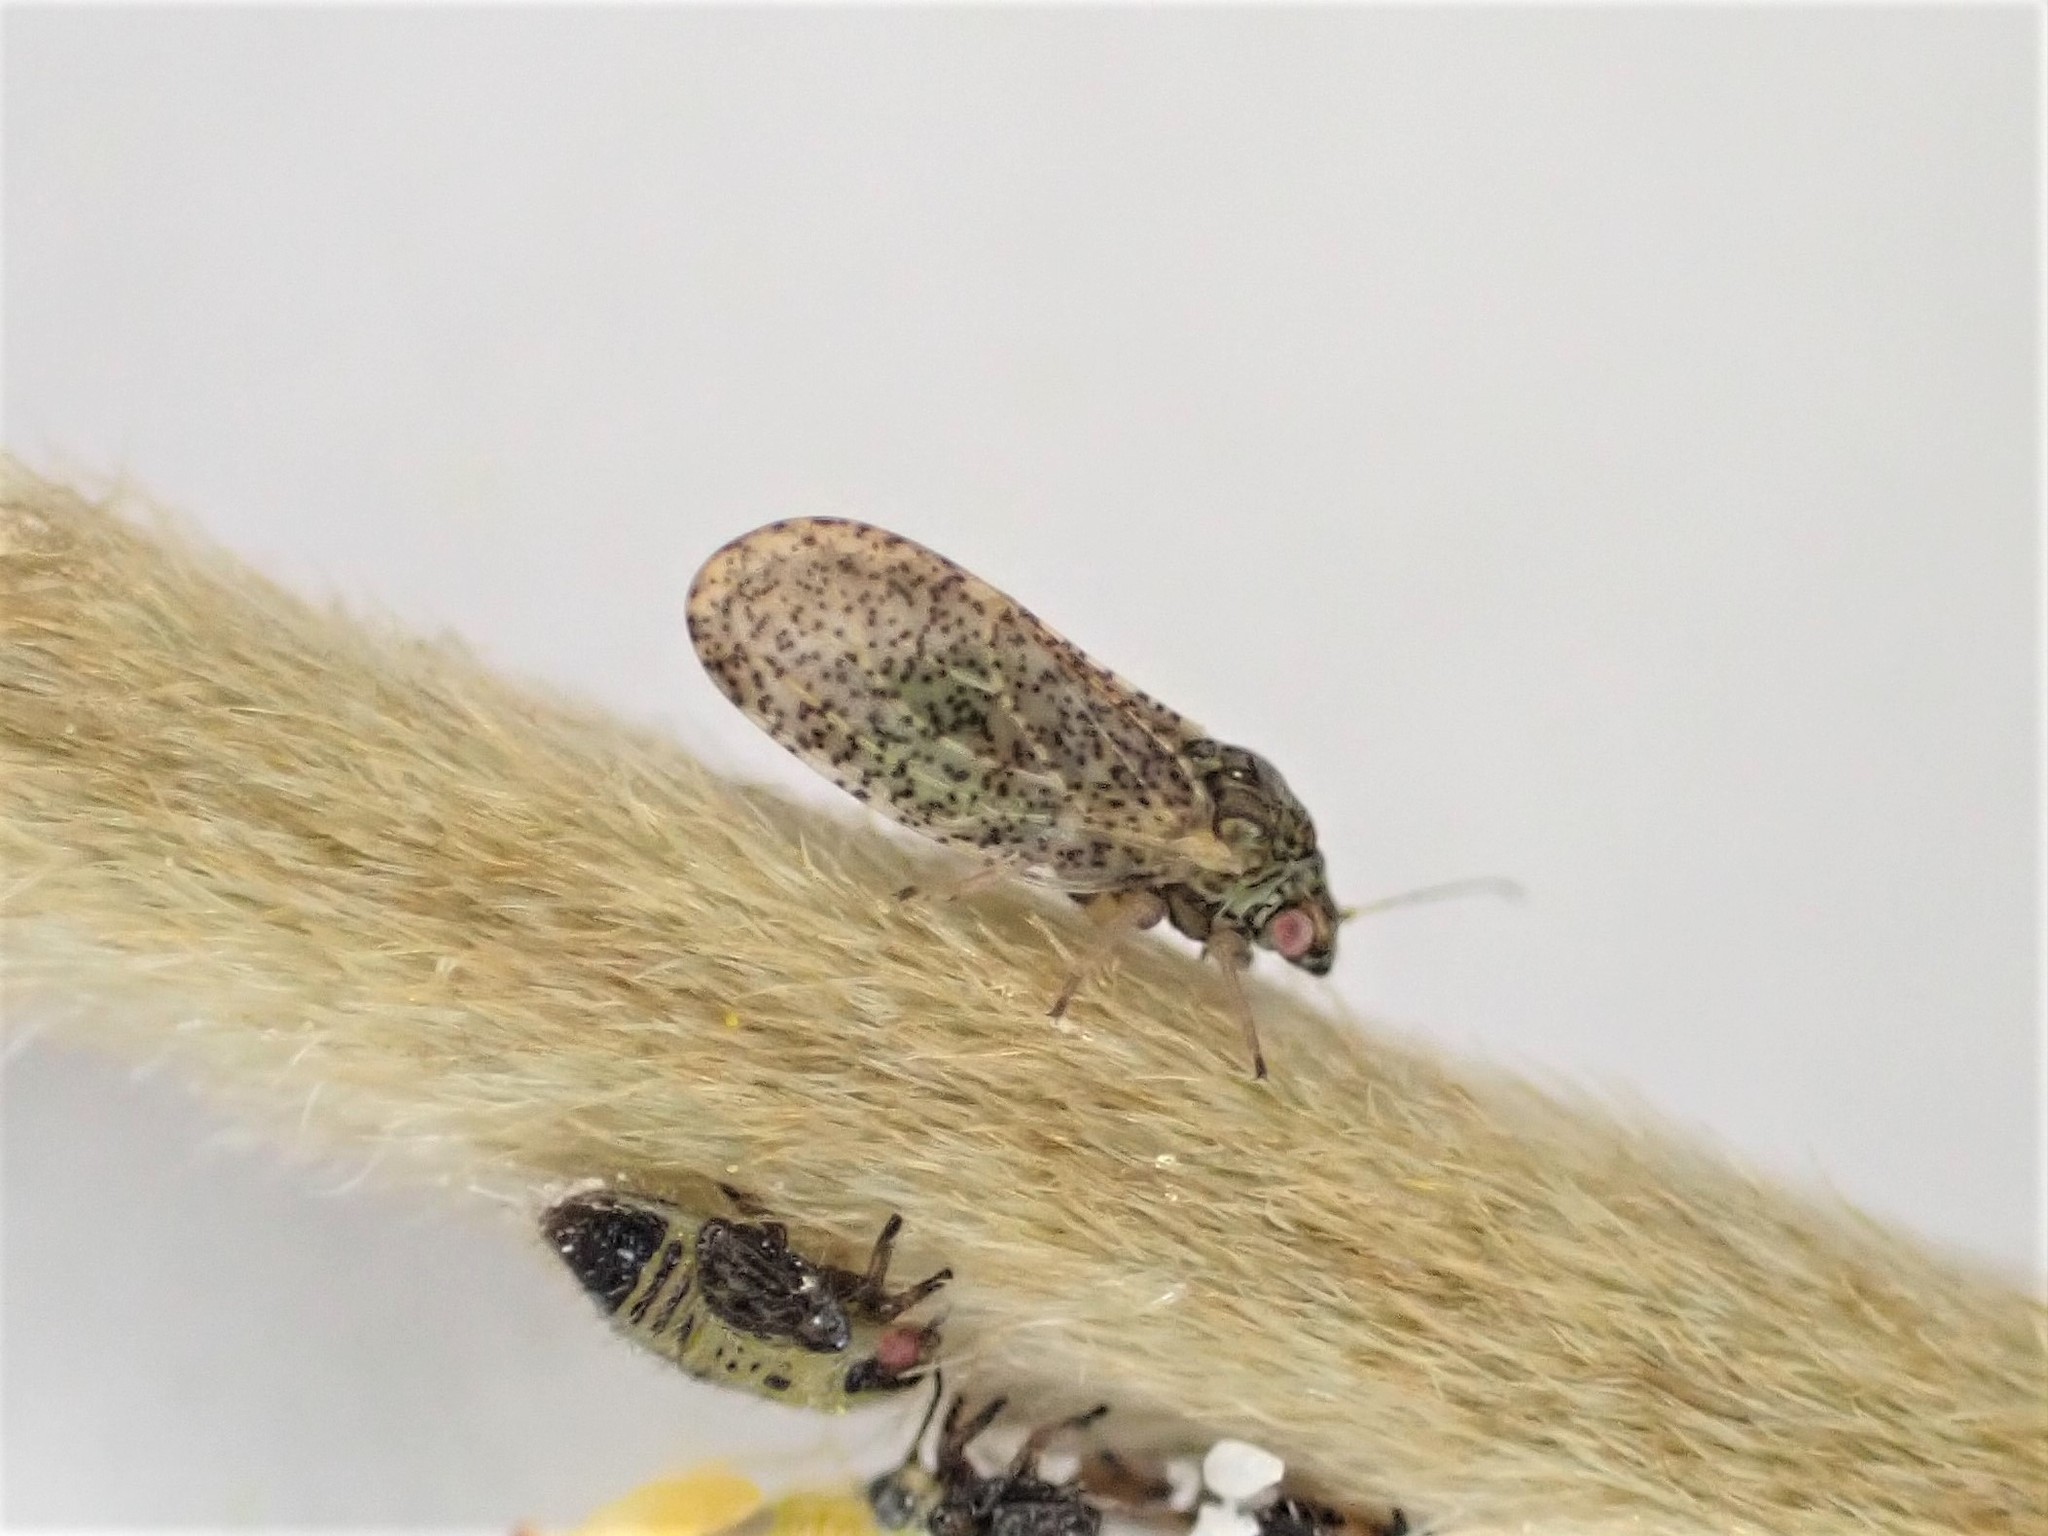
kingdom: Animalia
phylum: Arthropoda
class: Insecta
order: Hemiptera
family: Psyllidae
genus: Psylla
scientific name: Psylla frodobagginsi
